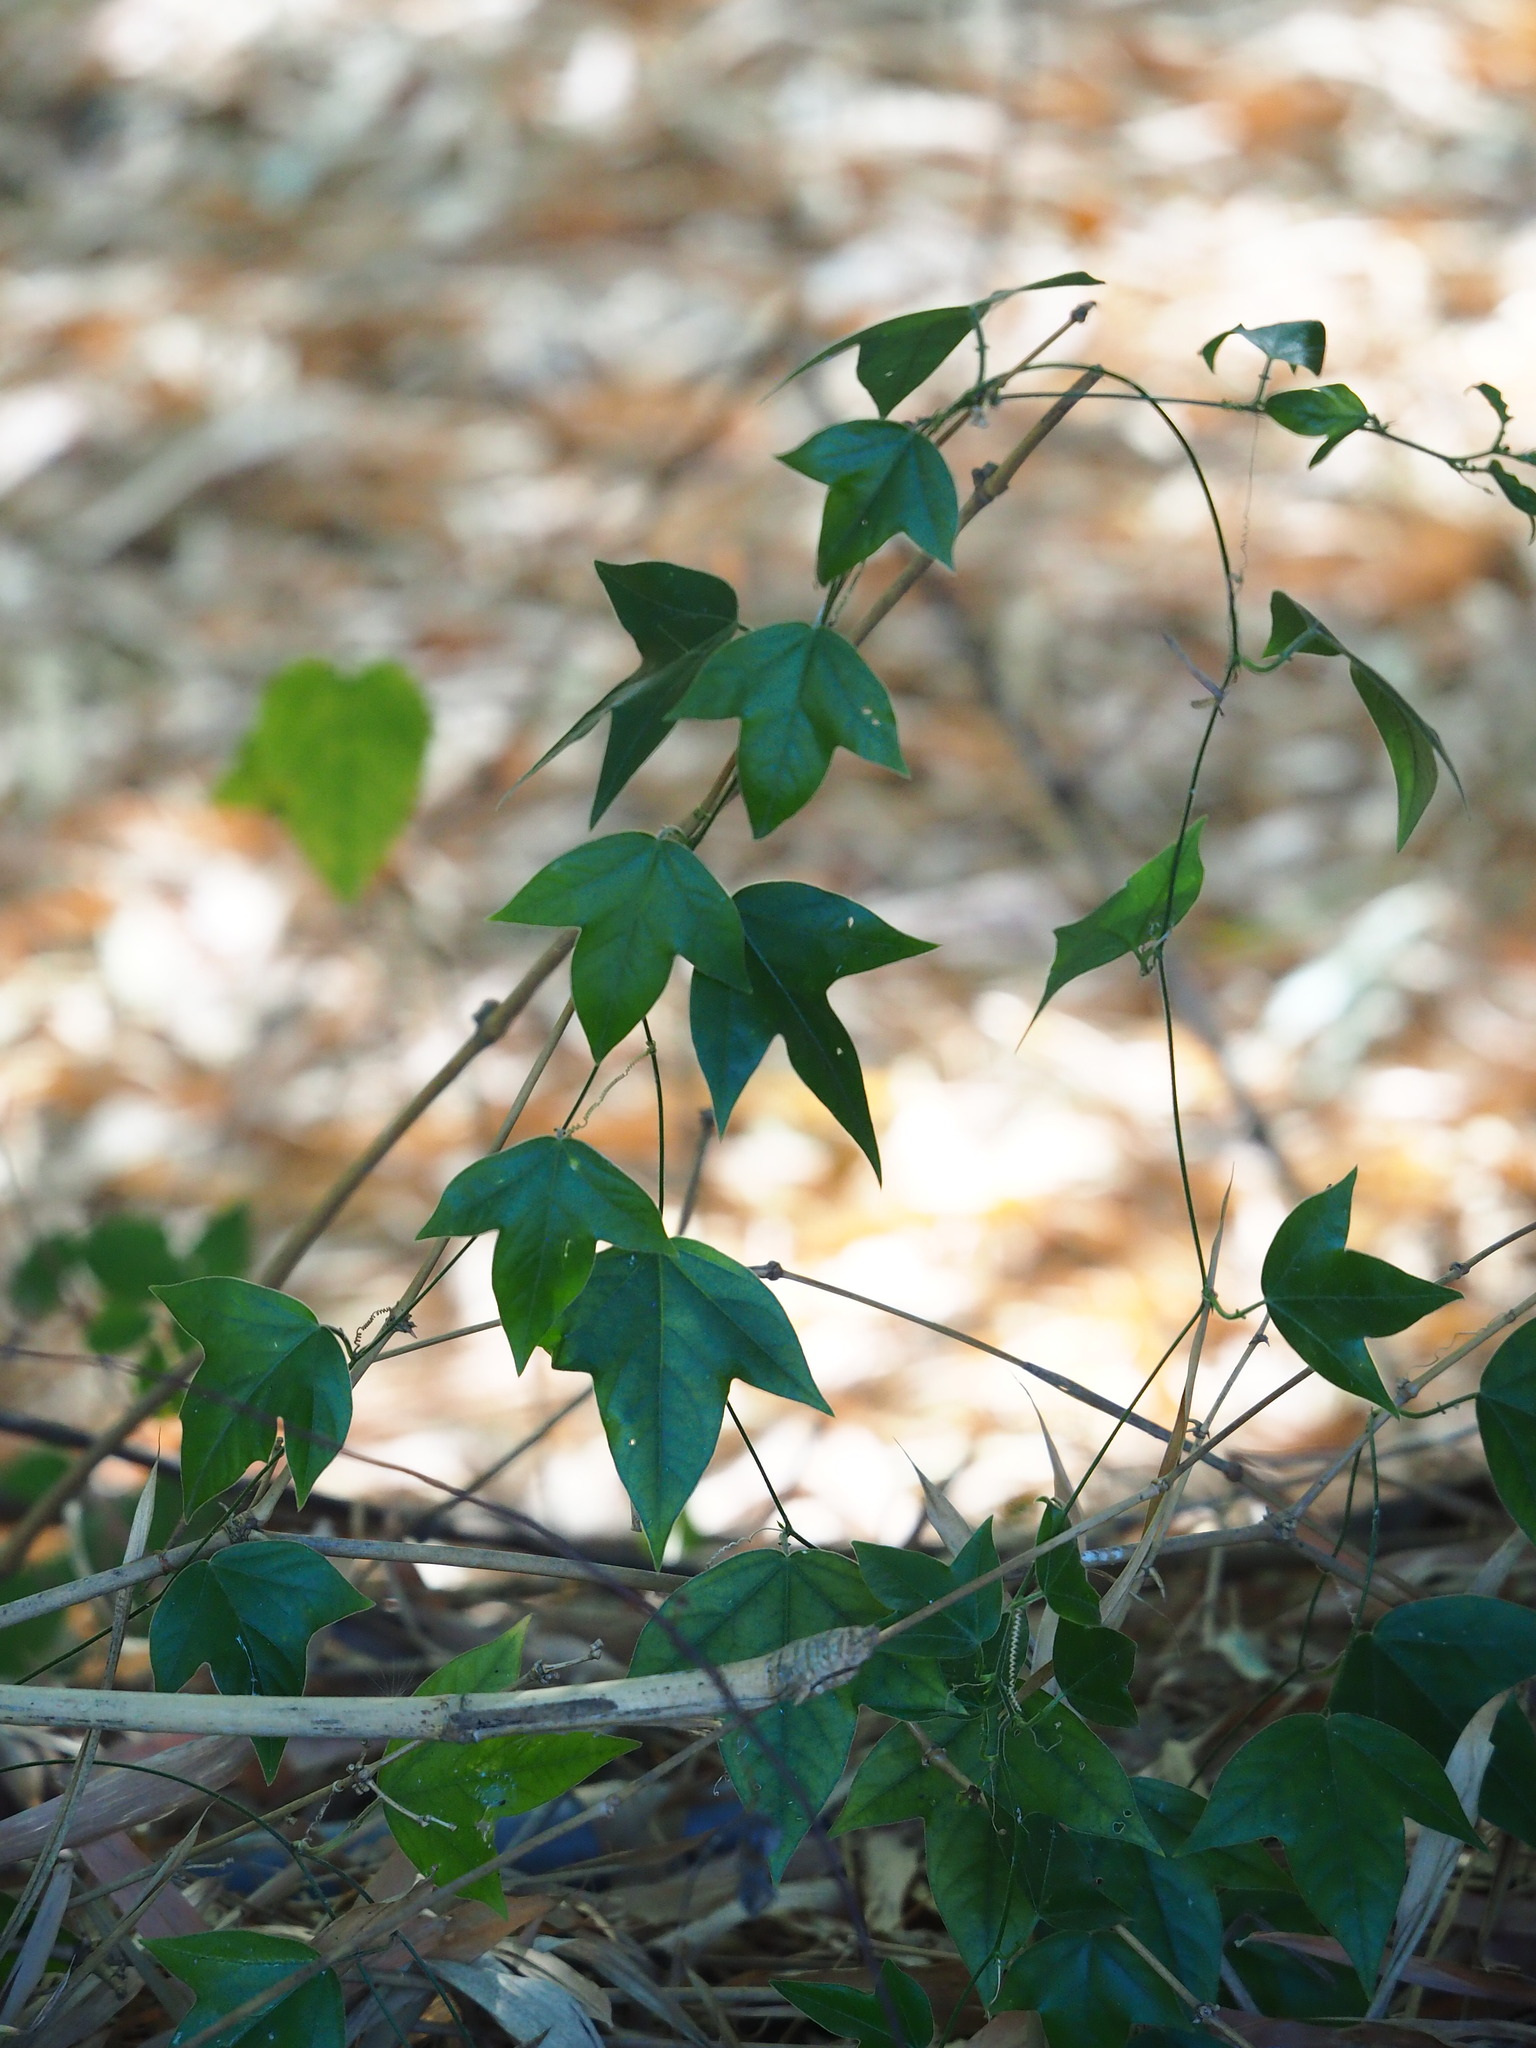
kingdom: Plantae
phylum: Tracheophyta
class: Magnoliopsida
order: Malpighiales
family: Passifloraceae
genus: Passiflora
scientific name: Passiflora suberosa
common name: Wild passionfruit
